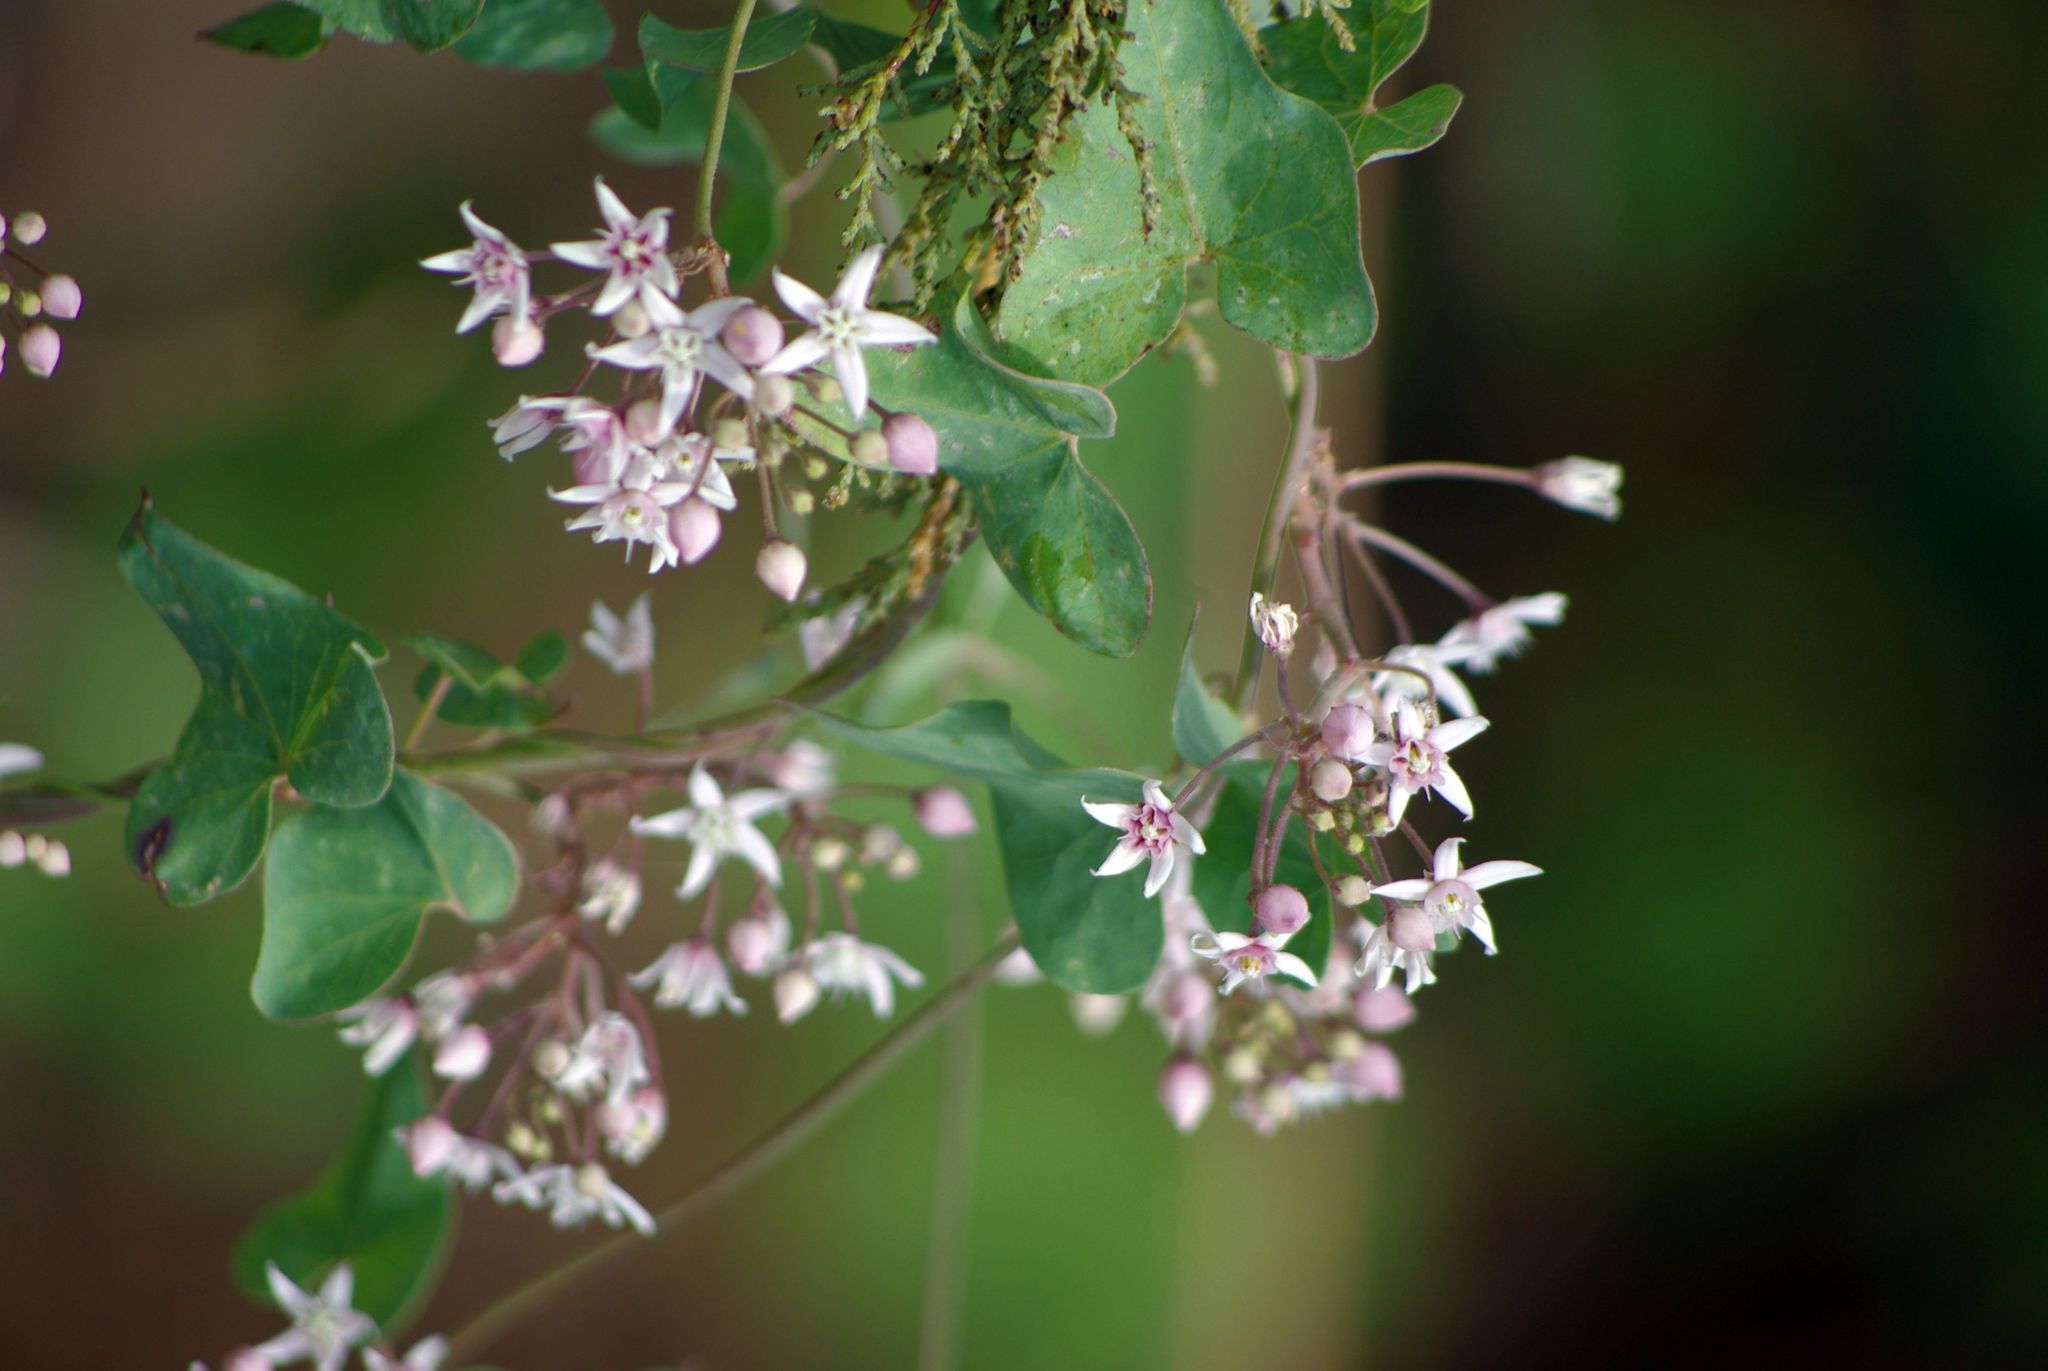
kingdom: Plantae
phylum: Tracheophyta
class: Magnoliopsida
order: Gentianales
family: Apocynaceae
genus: Cynanchum
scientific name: Cynanchum acutum
